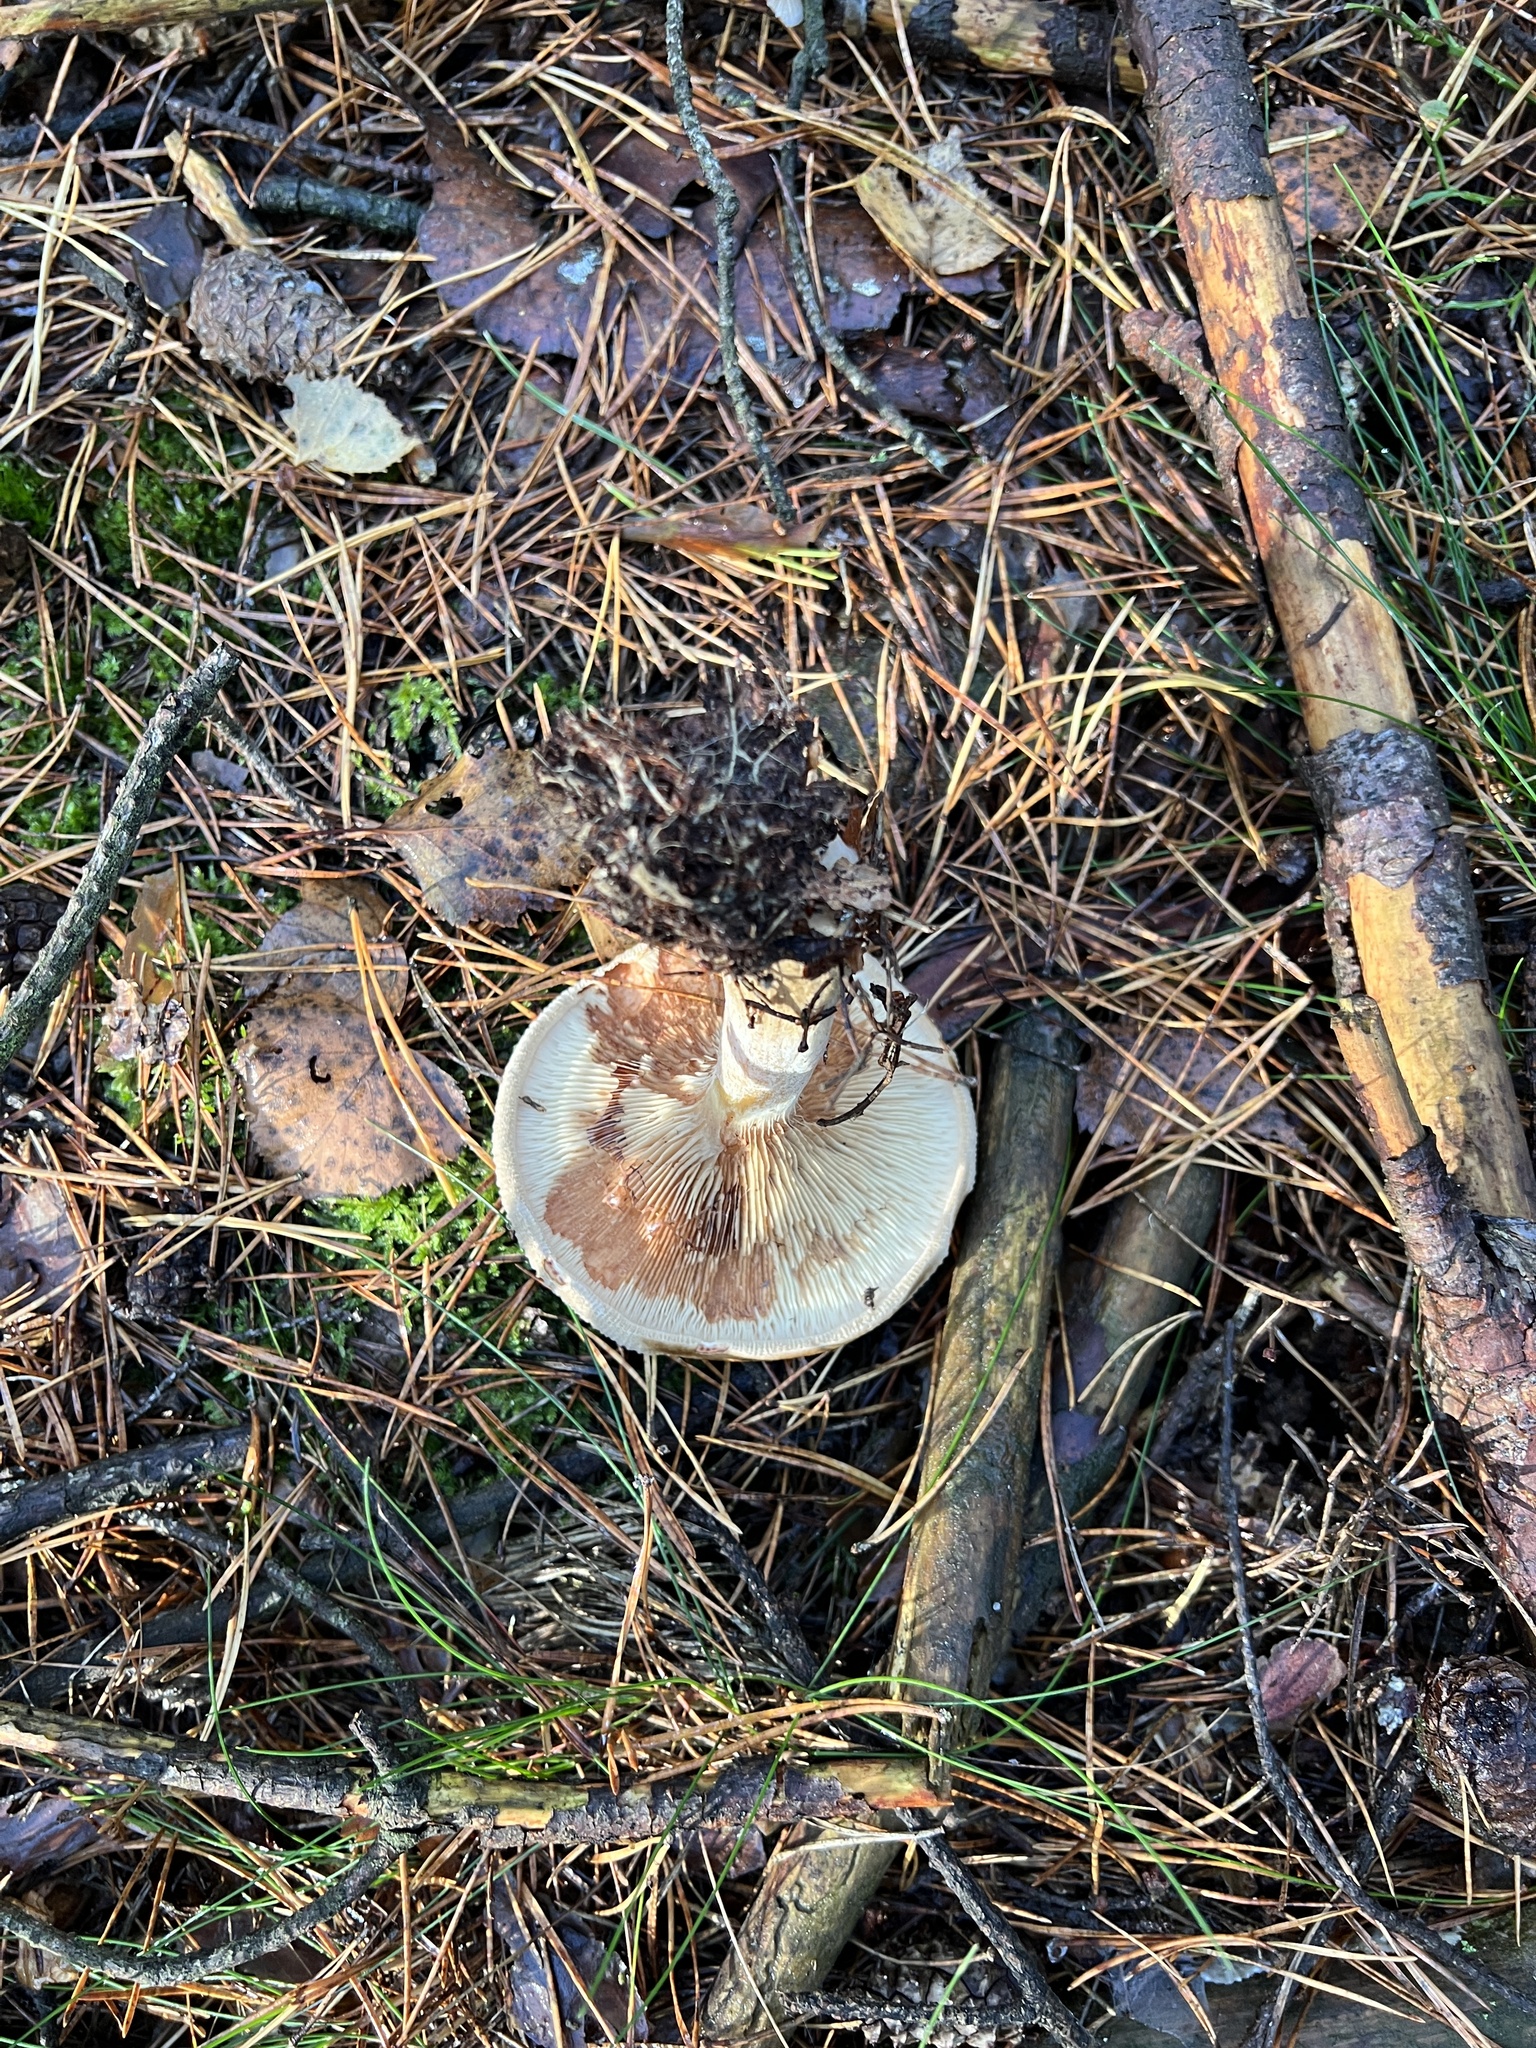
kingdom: Fungi
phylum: Basidiomycota
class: Agaricomycetes
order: Boletales
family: Paxillaceae
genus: Paxillus
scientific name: Paxillus involutus
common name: Brown roll rim
